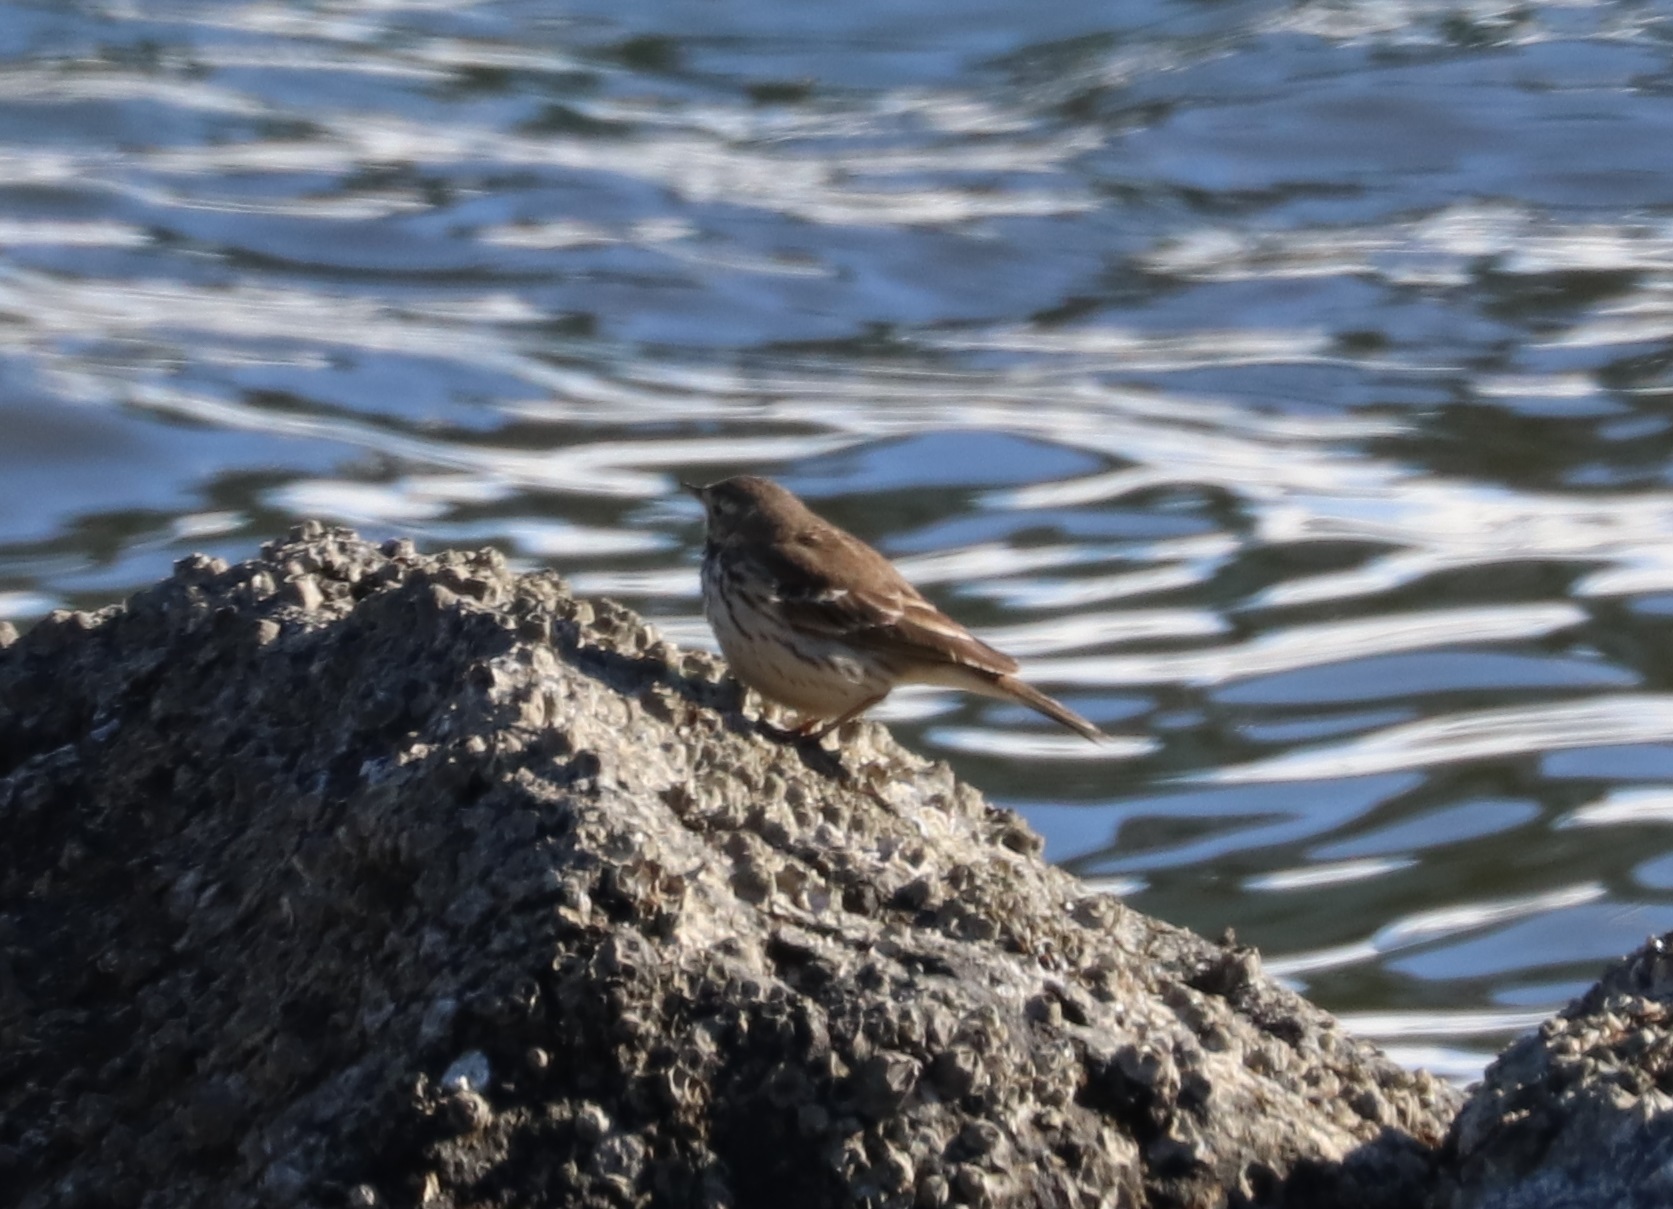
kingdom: Animalia
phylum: Chordata
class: Aves
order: Passeriformes
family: Motacillidae
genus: Anthus
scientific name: Anthus rubescens
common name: Buff-bellied pipit
